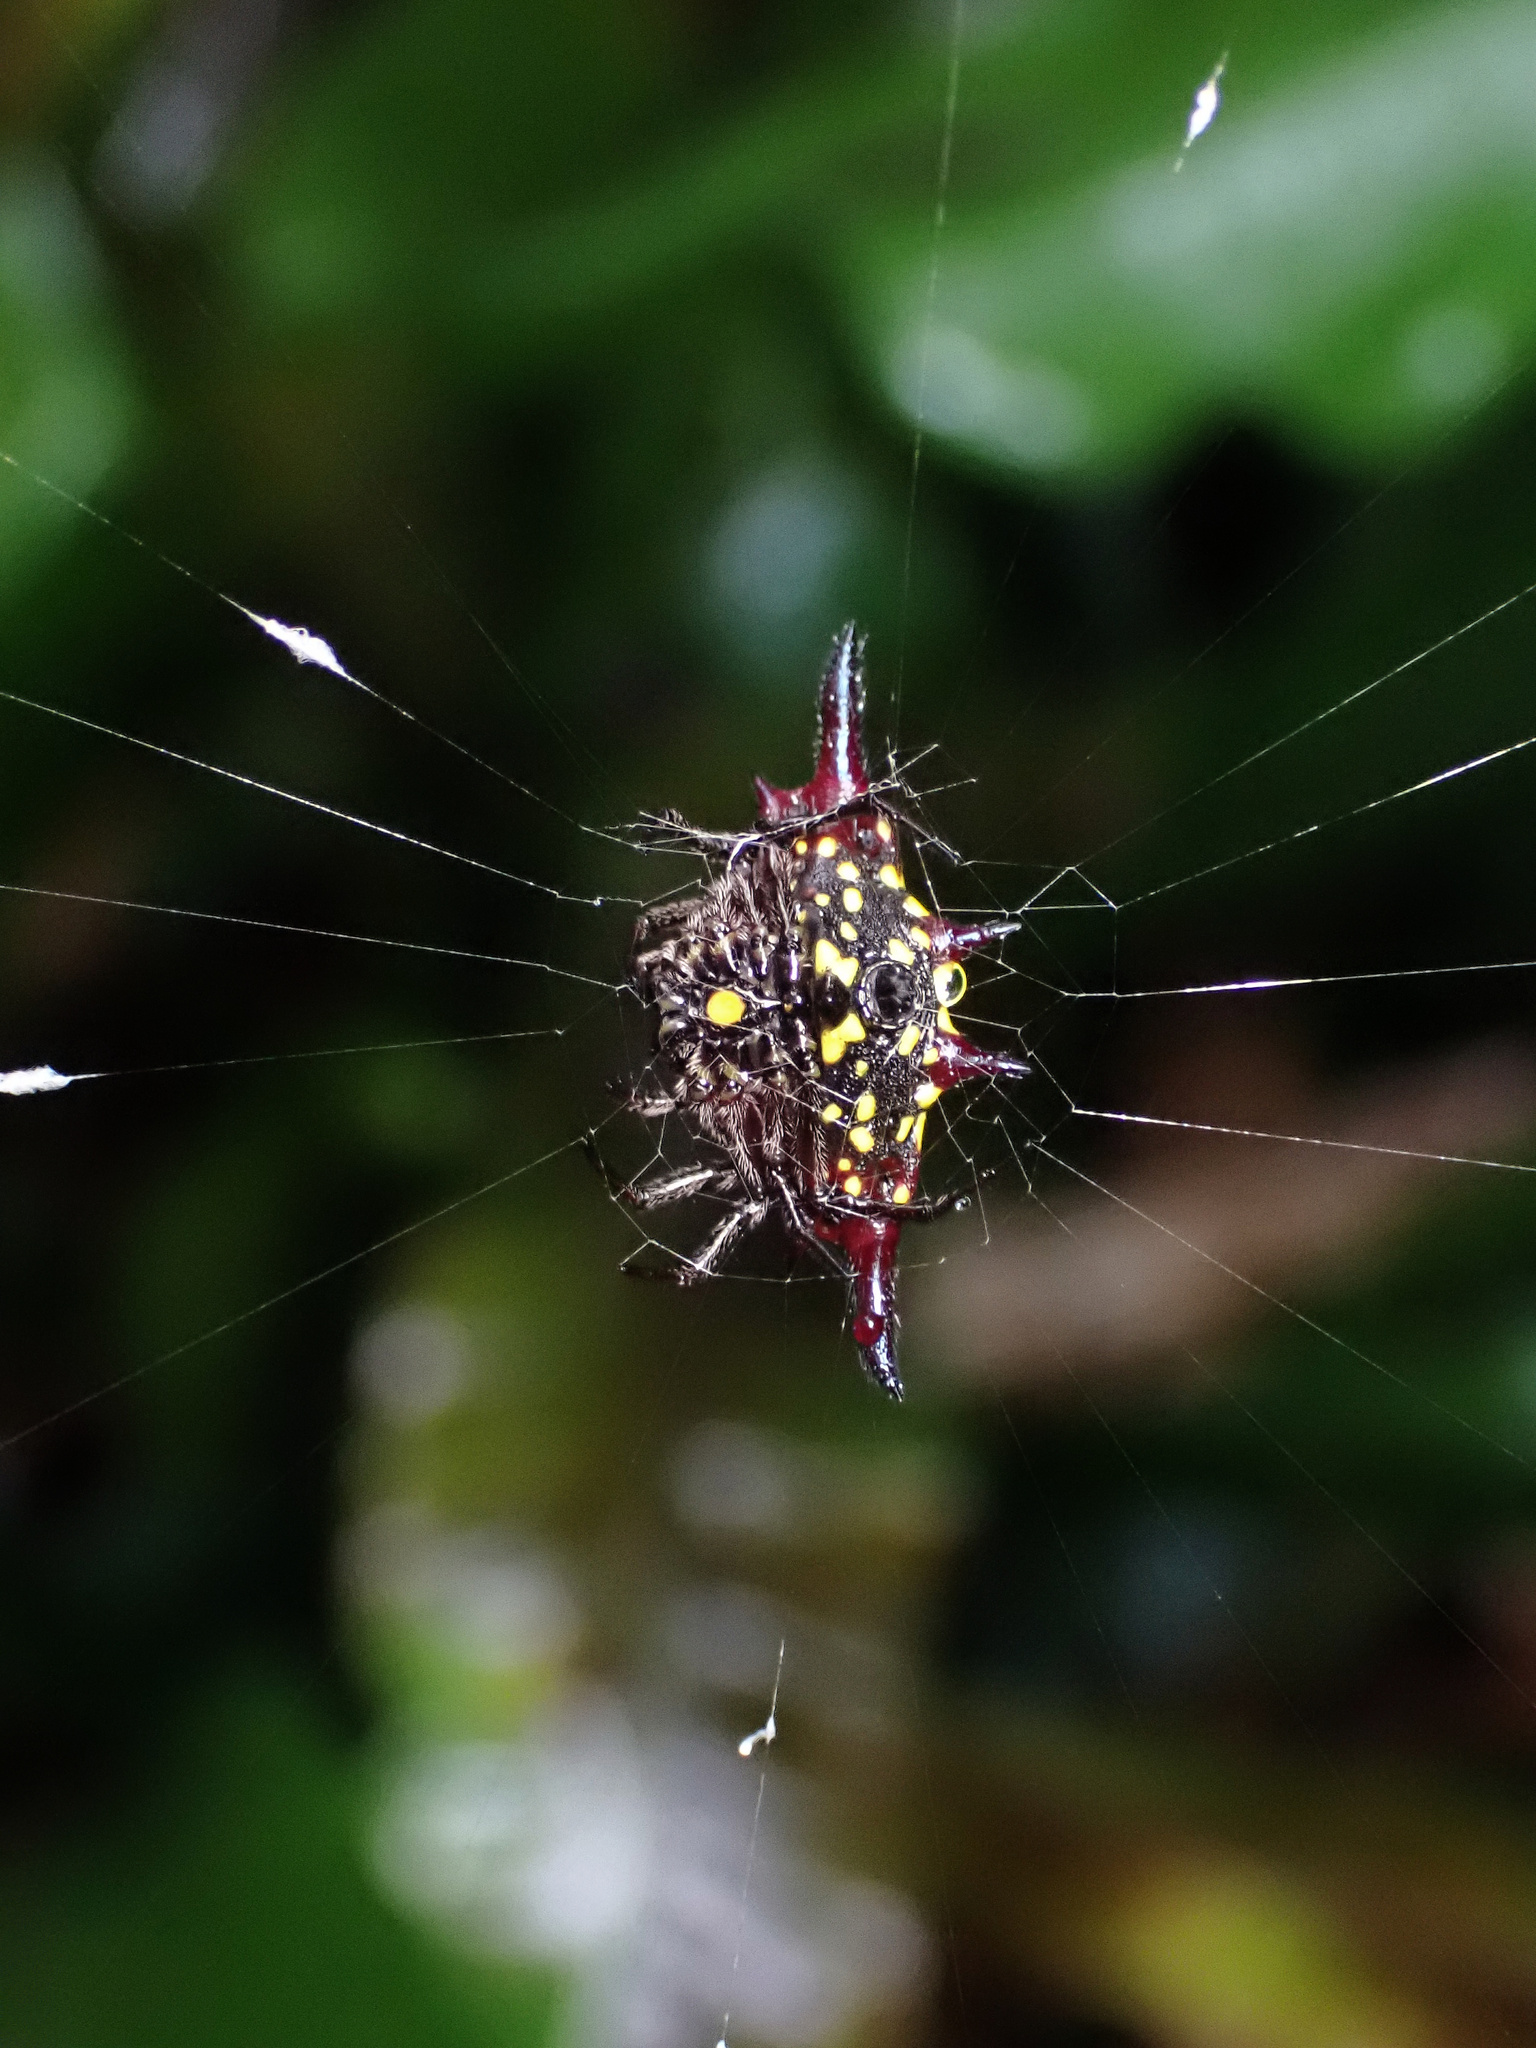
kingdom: Animalia
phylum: Arthropoda
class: Arachnida
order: Araneae
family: Araneidae
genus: Gasteracantha
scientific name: Gasteracantha fornicata
